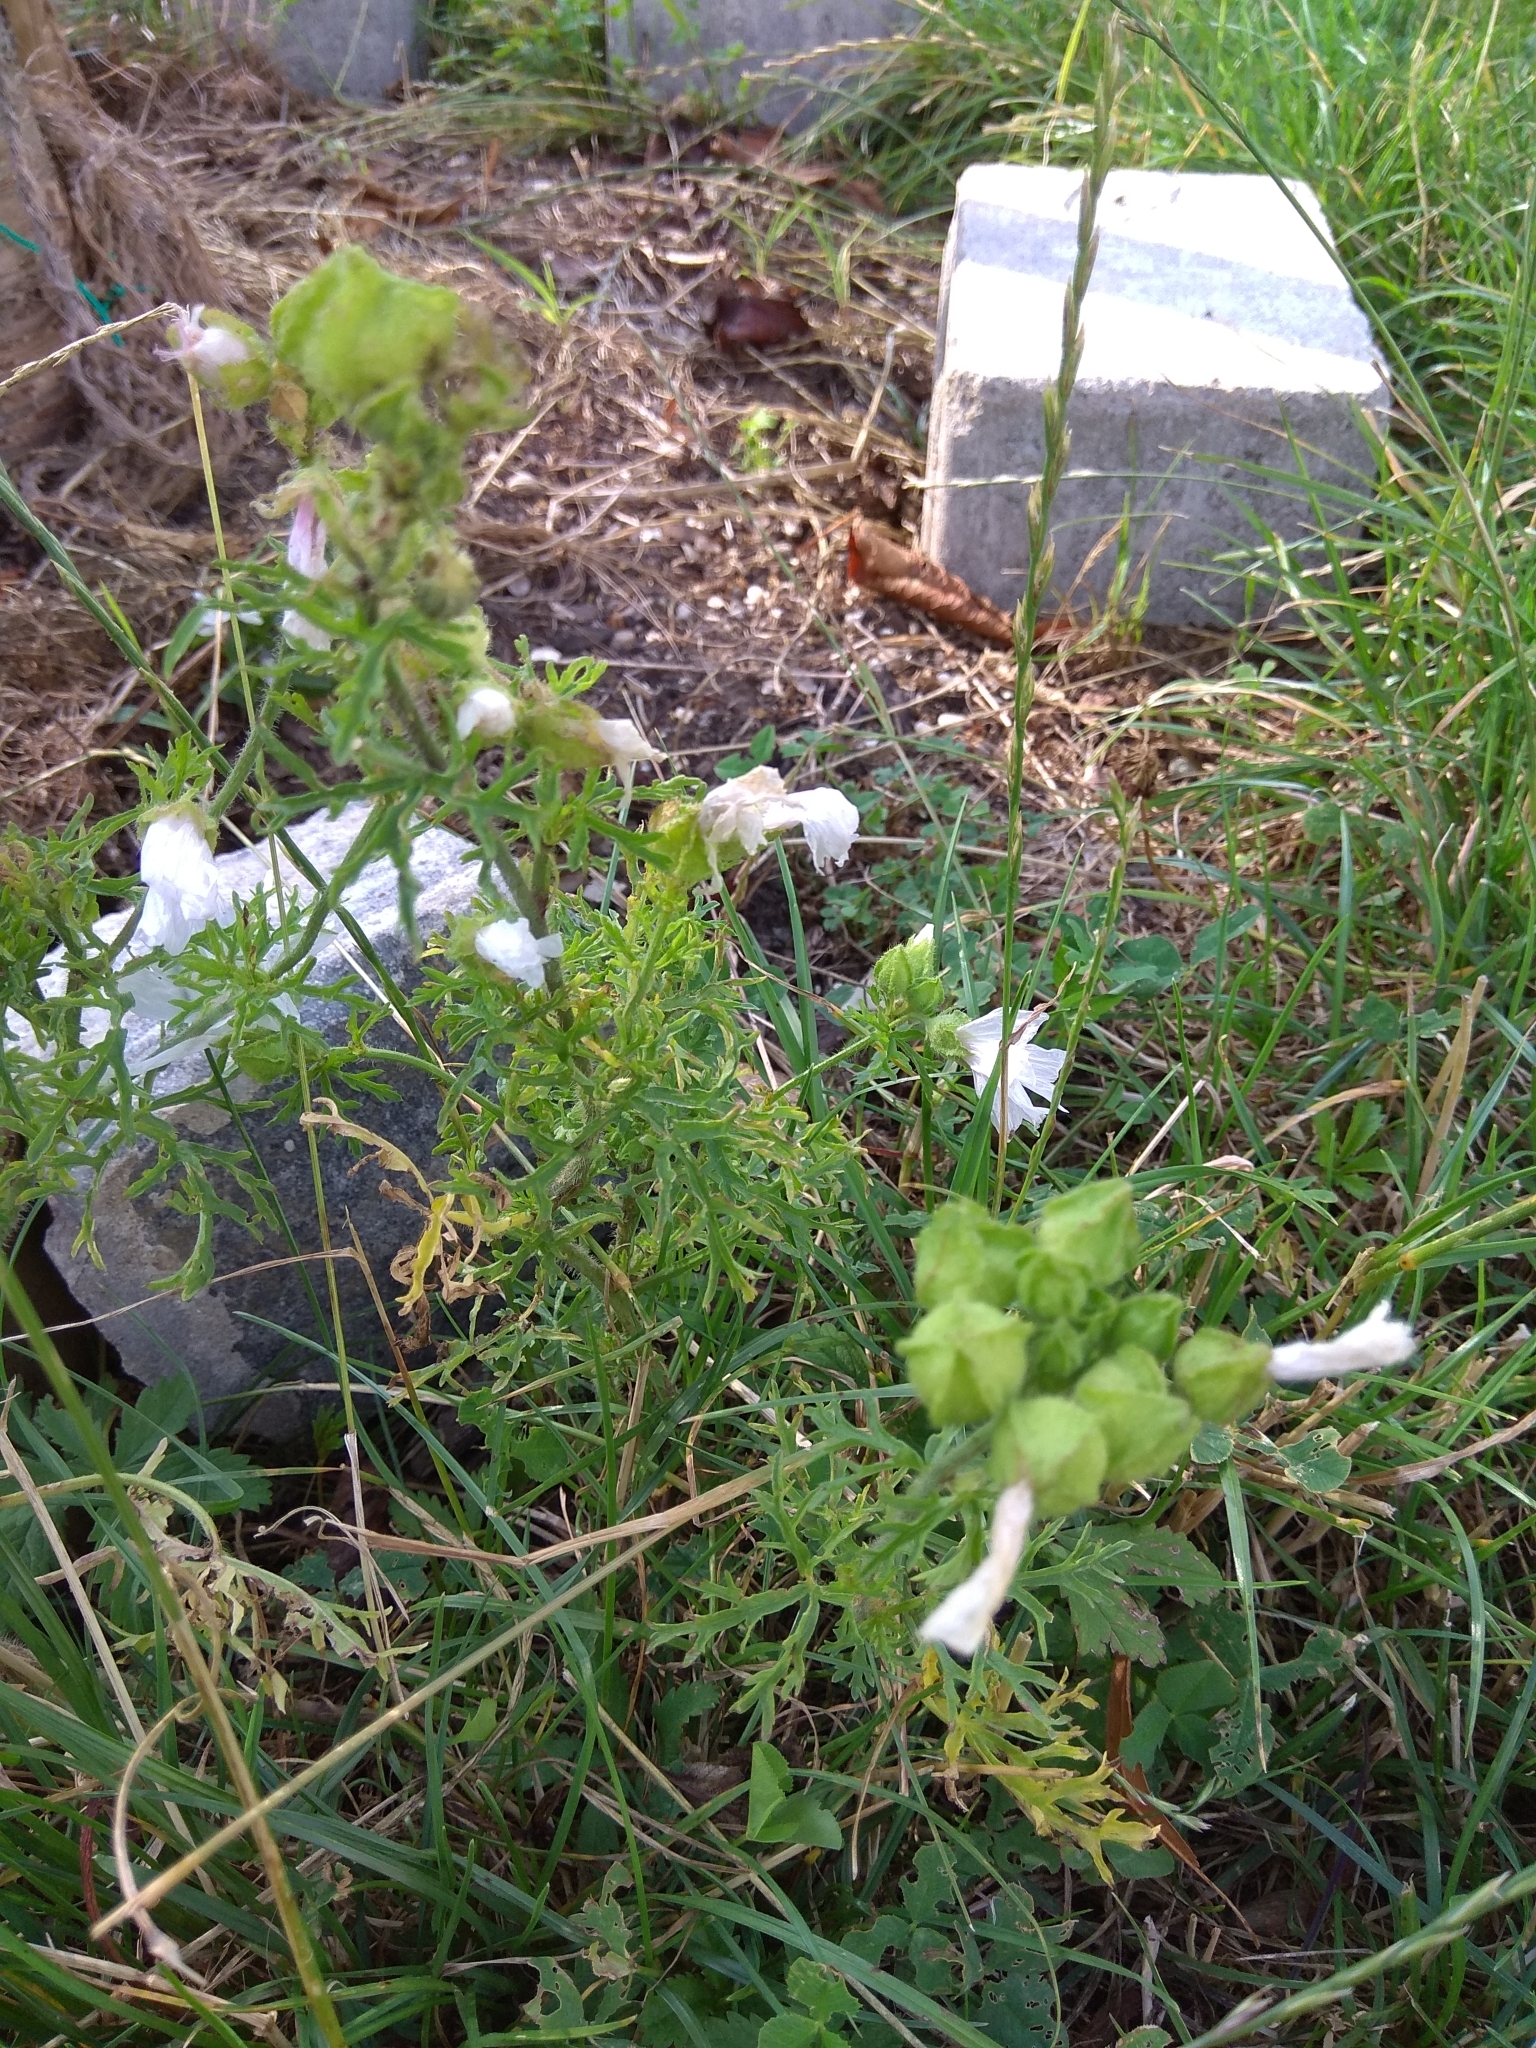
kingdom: Plantae
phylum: Tracheophyta
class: Magnoliopsida
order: Malvales
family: Malvaceae
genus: Malva
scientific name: Malva moschata
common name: Musk mallow
